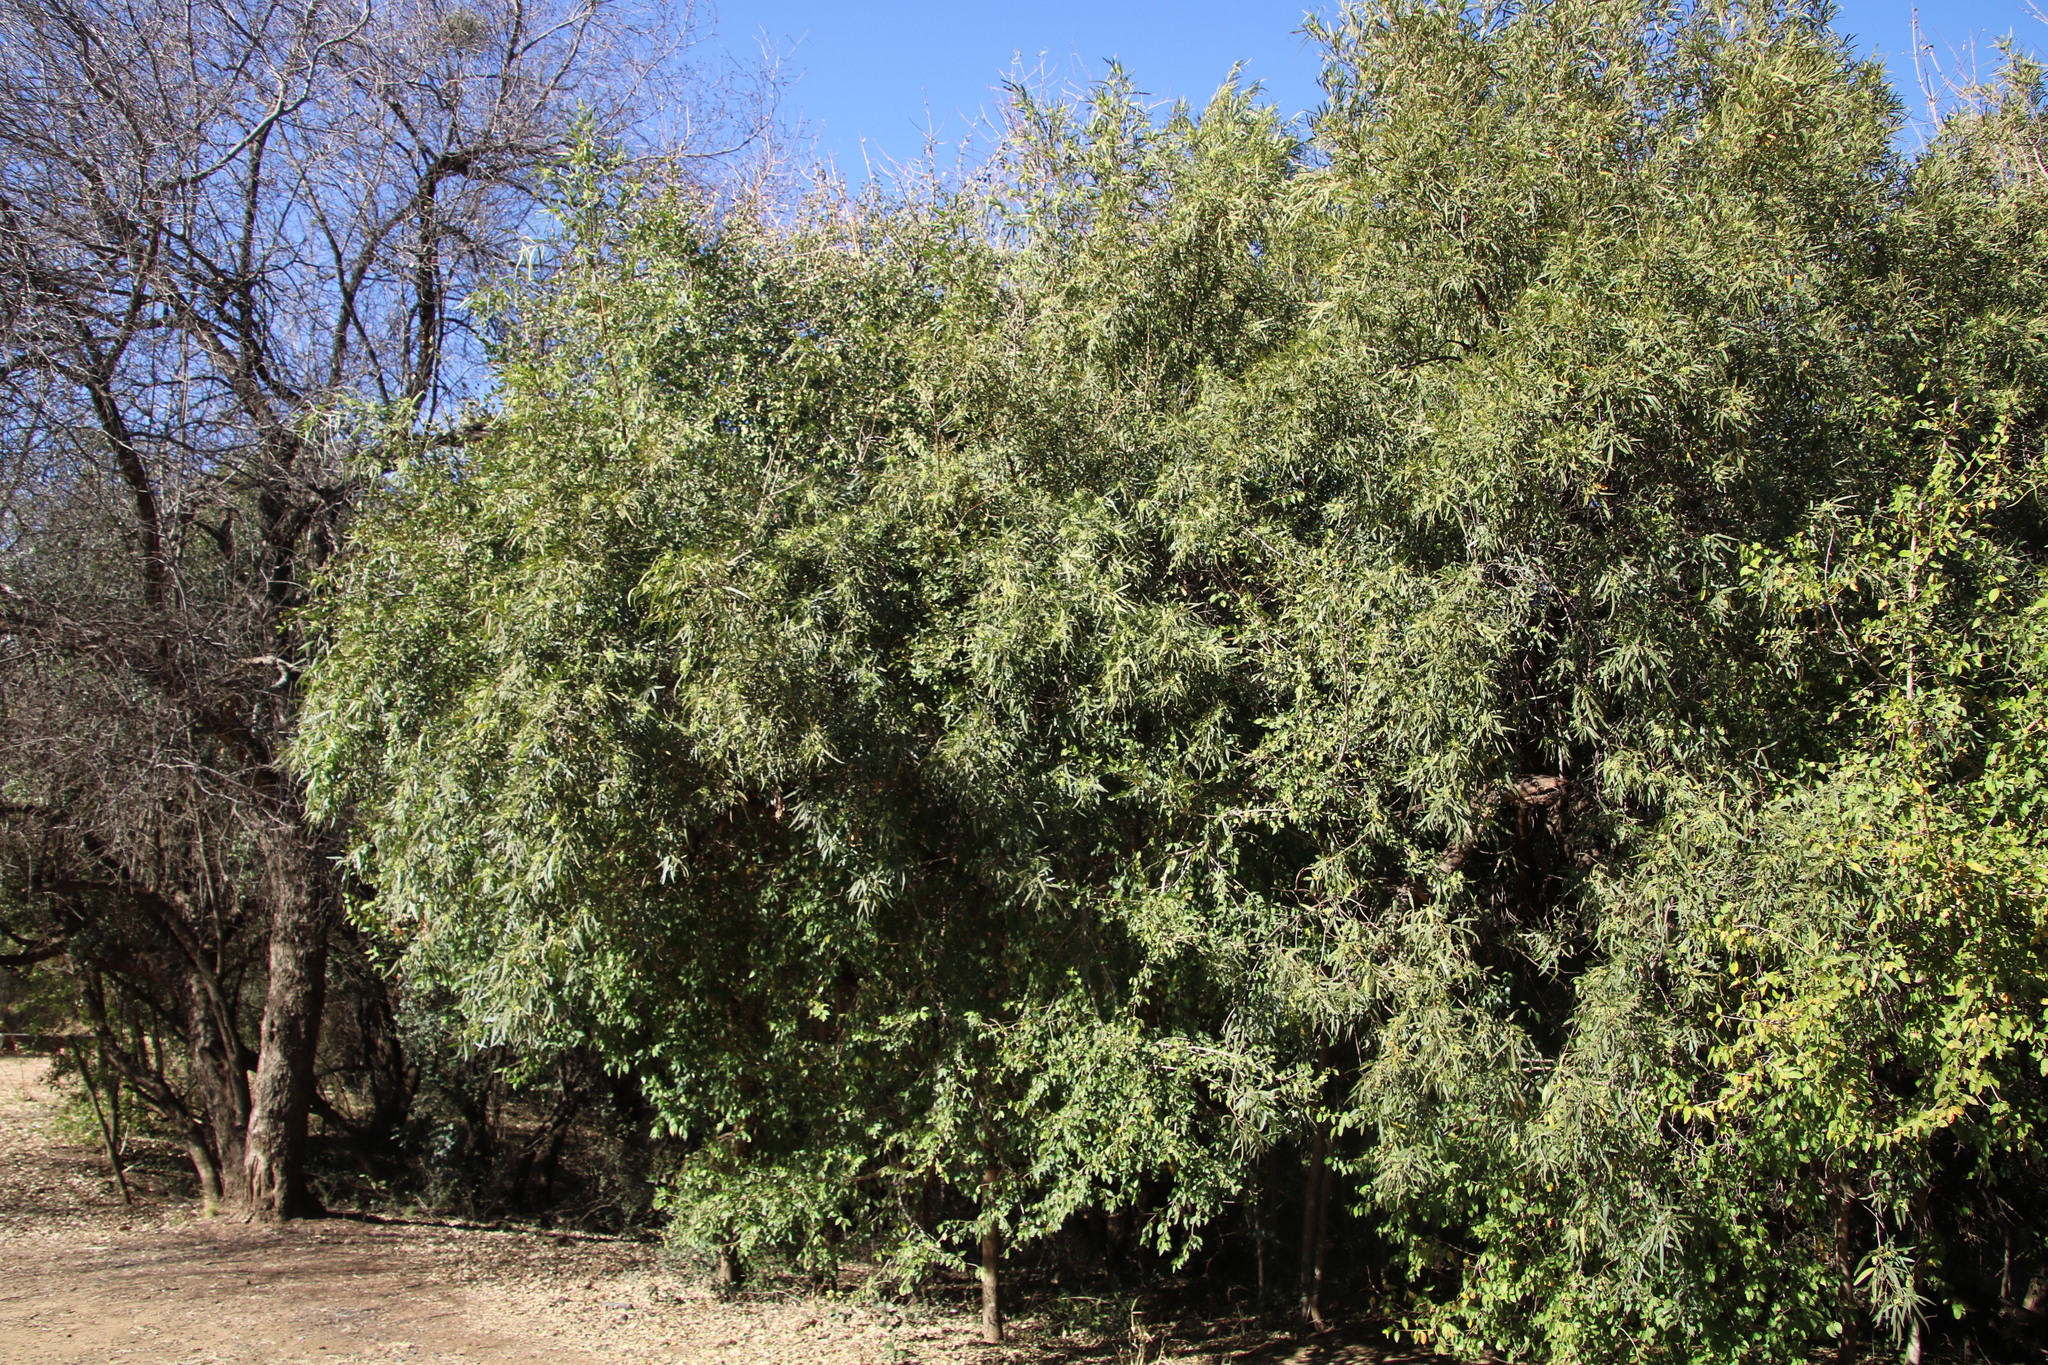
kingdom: Plantae
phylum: Tracheophyta
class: Magnoliopsida
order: Sapindales
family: Anacardiaceae
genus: Searsia
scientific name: Searsia lancea
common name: Cashew
